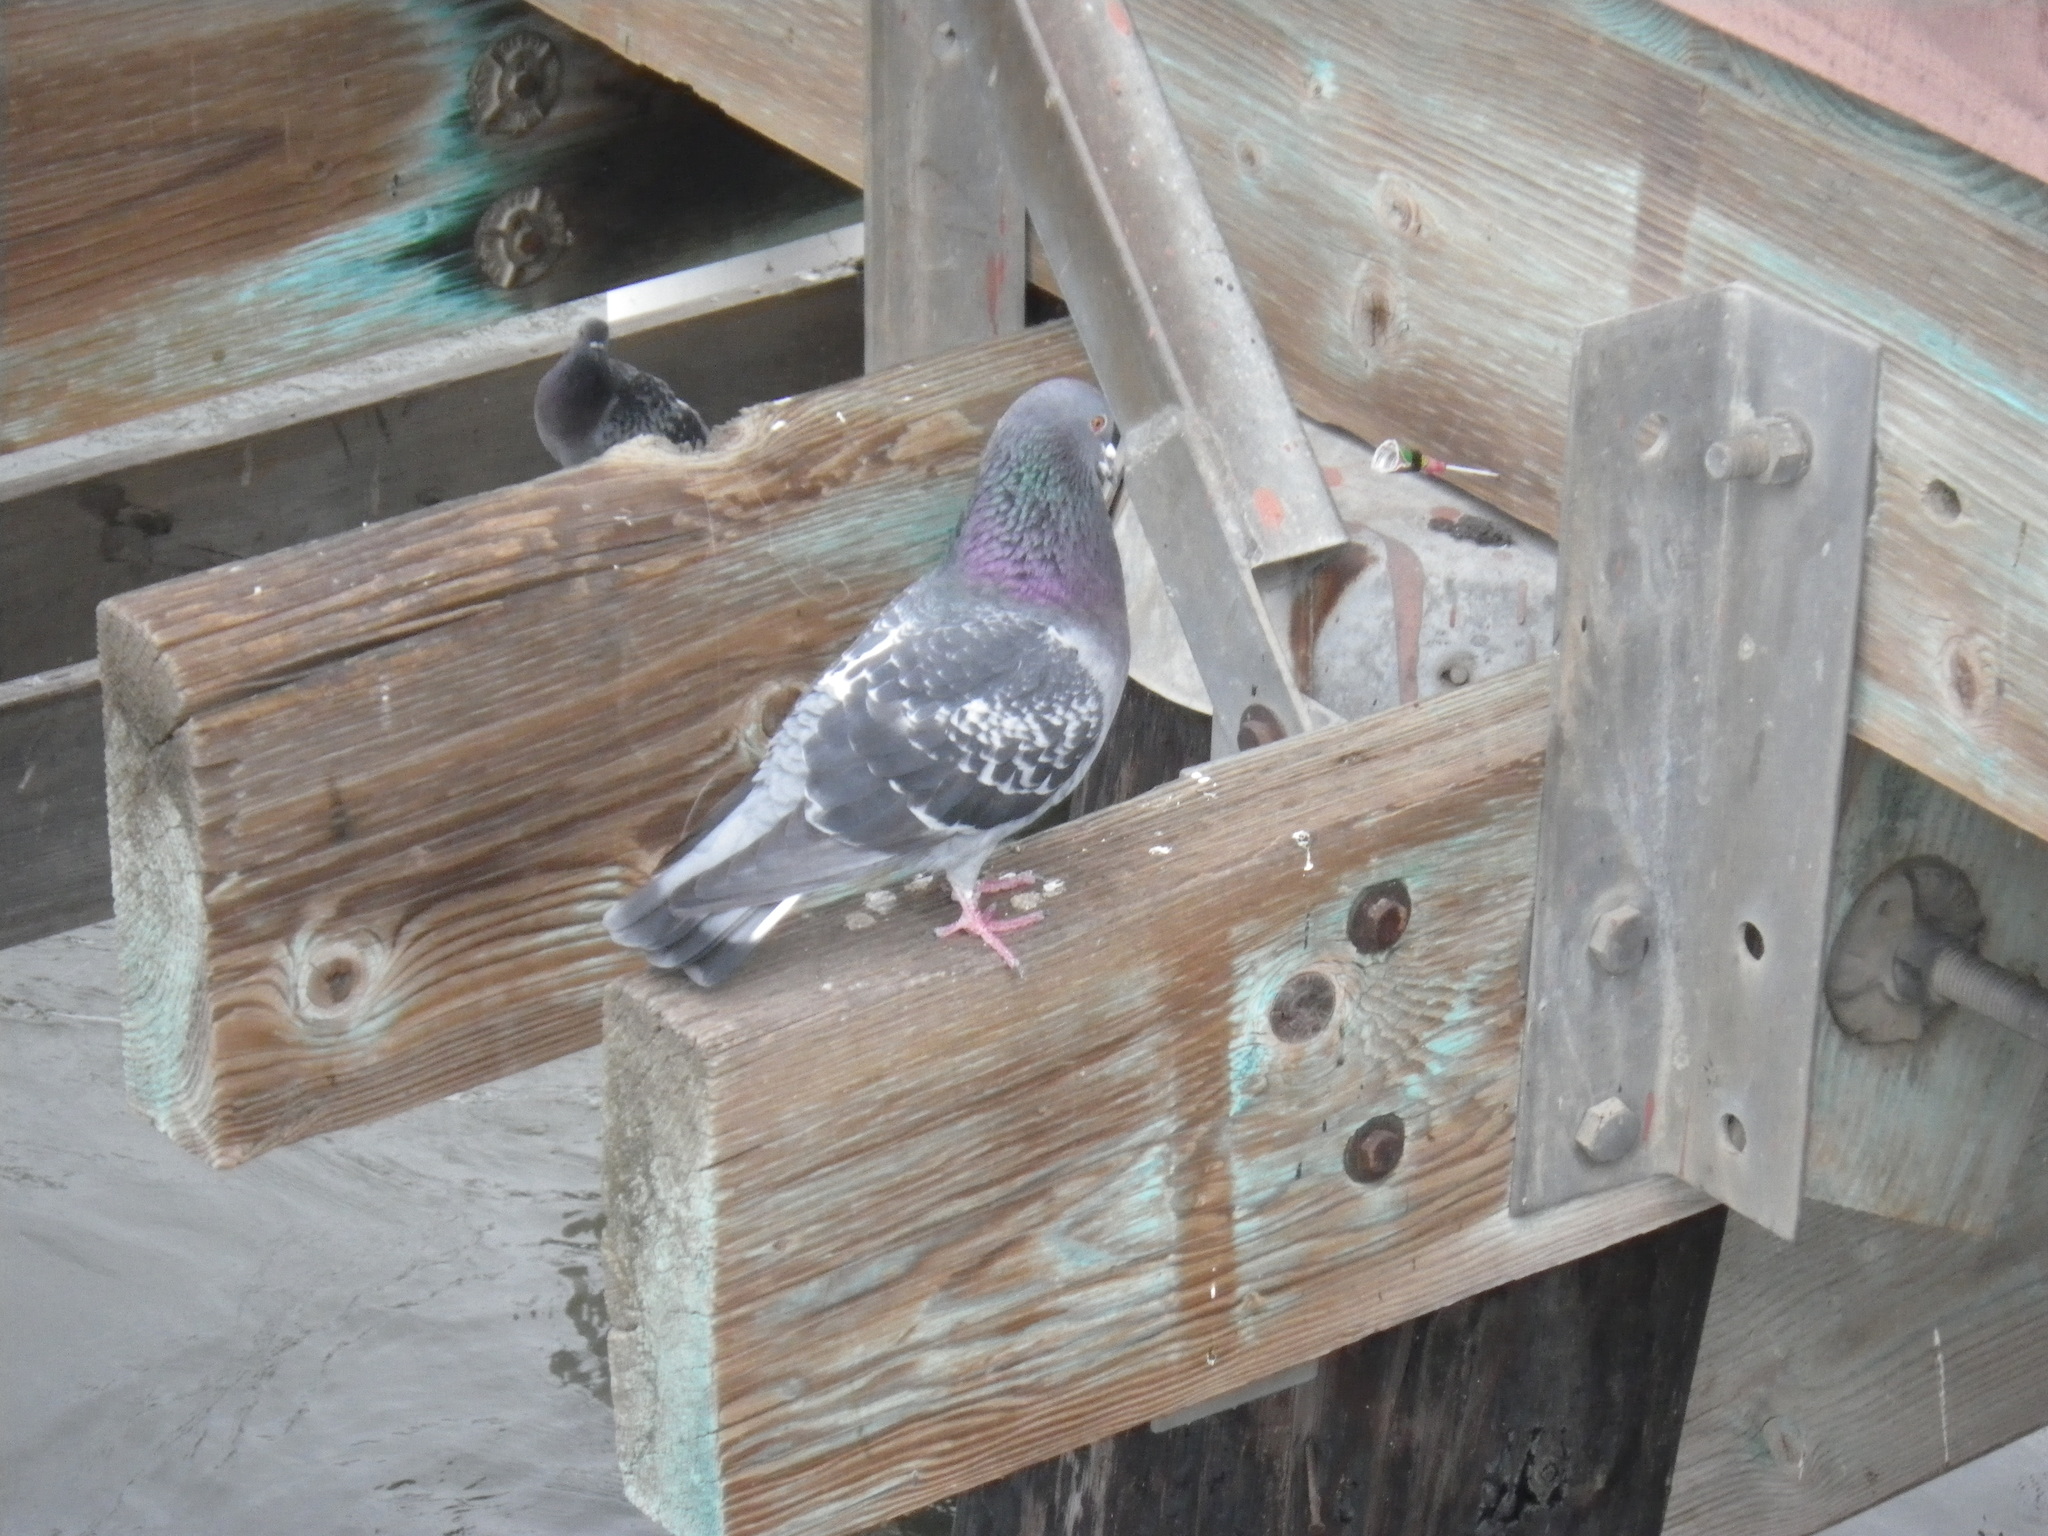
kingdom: Animalia
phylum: Chordata
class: Aves
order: Columbiformes
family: Columbidae
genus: Columba
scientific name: Columba livia
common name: Rock pigeon
